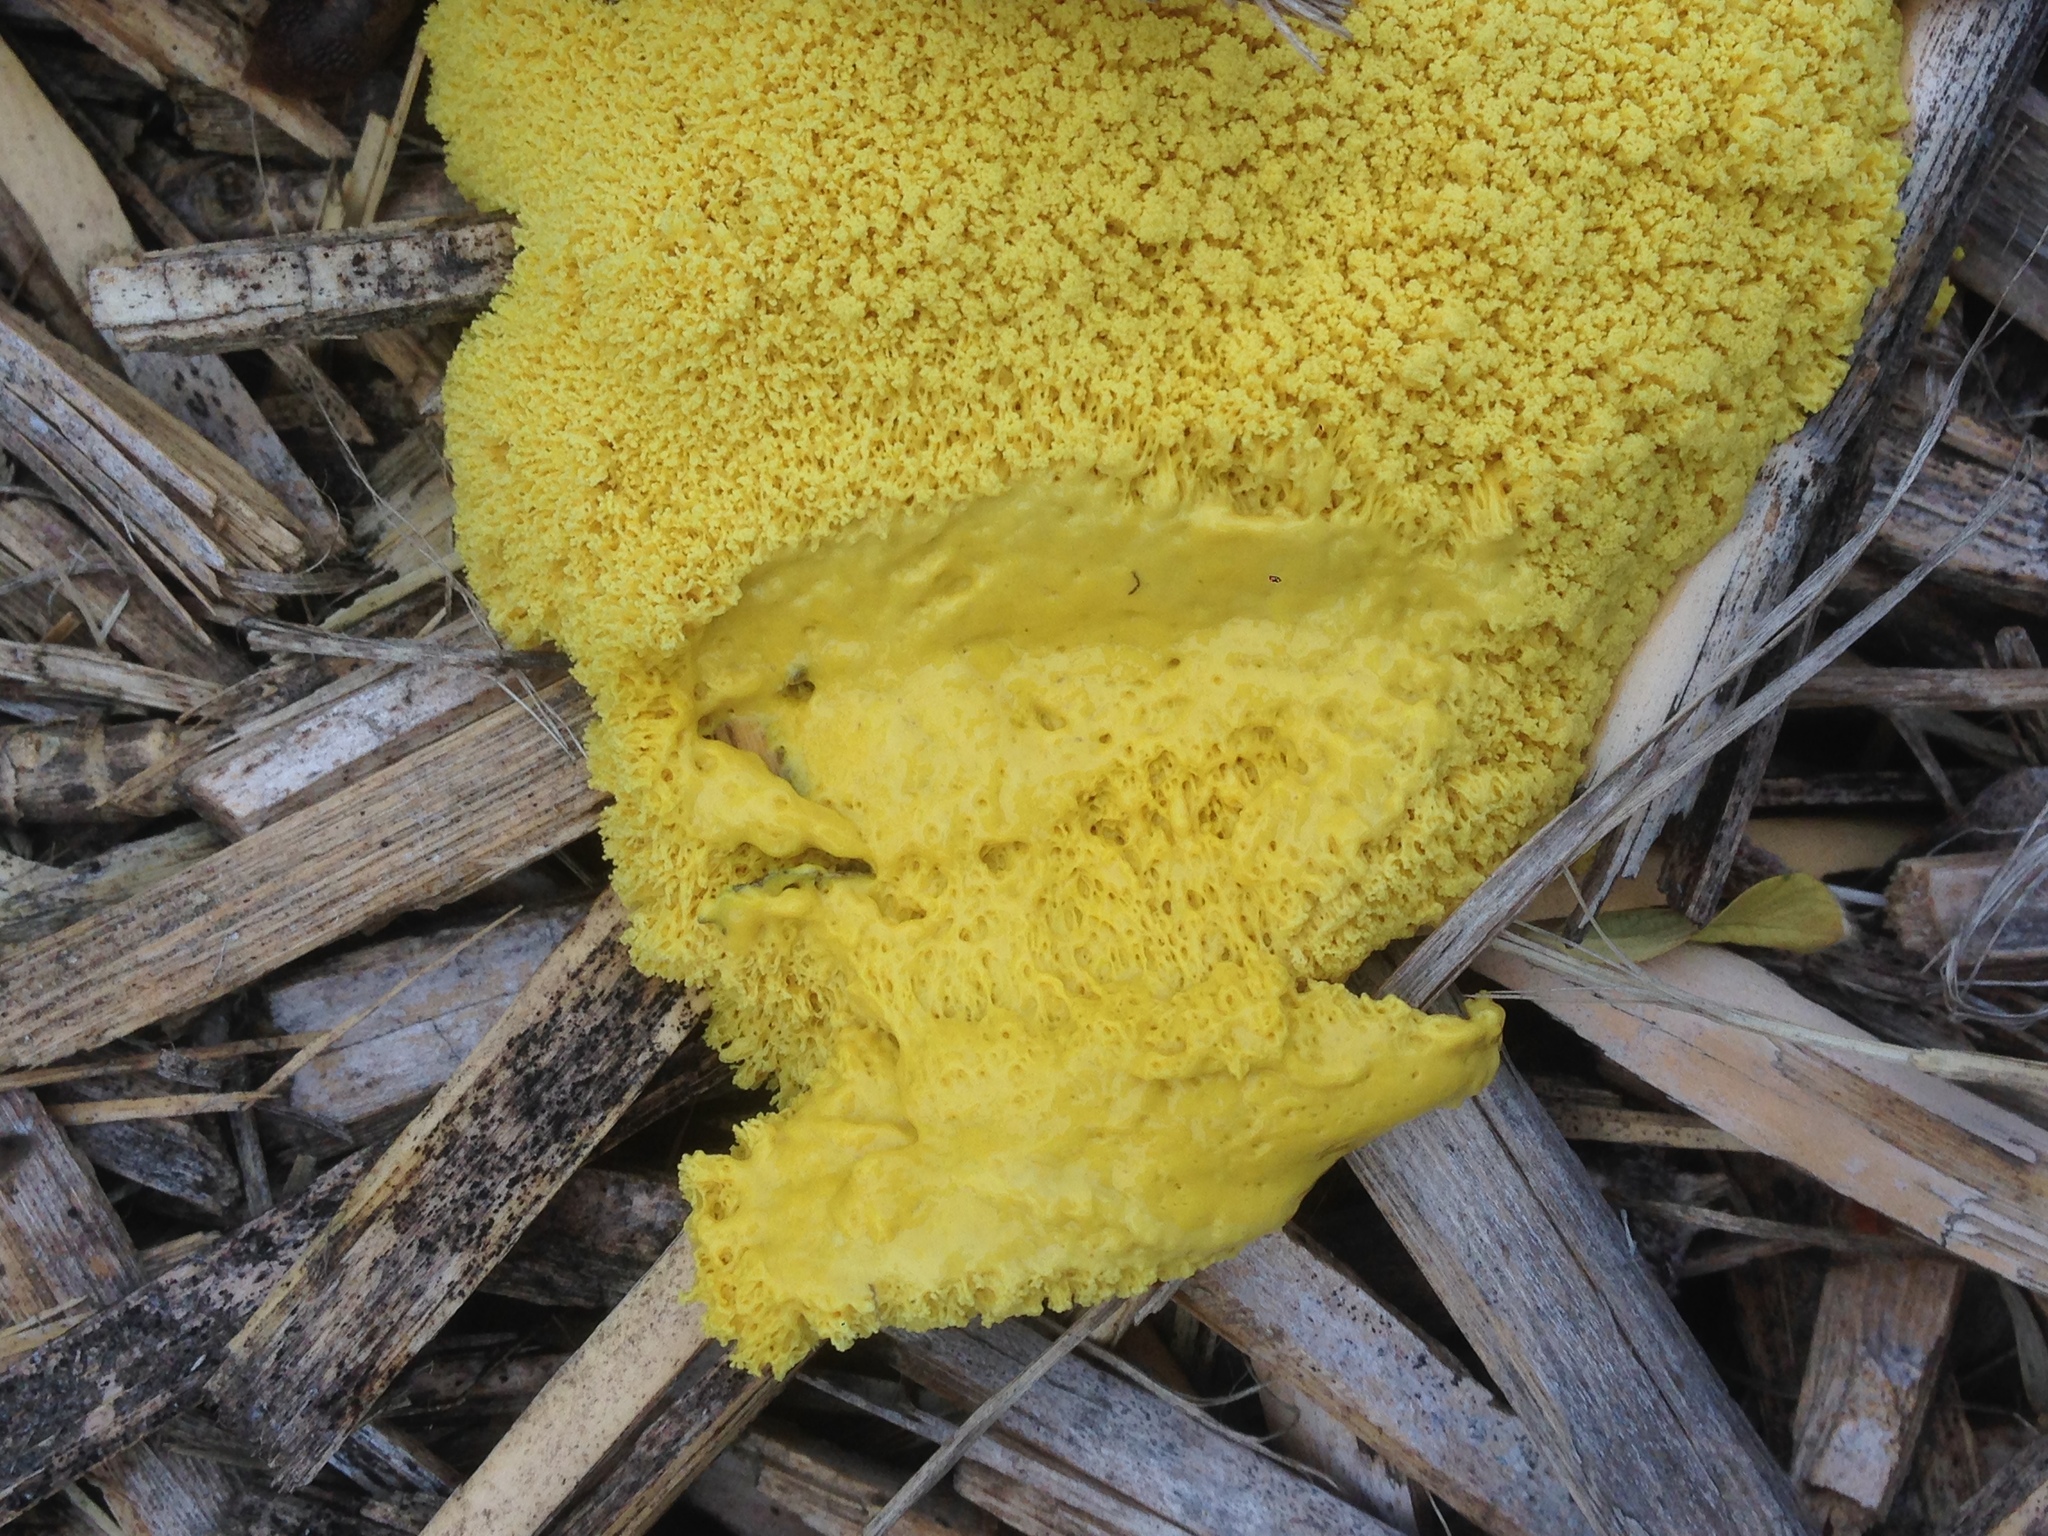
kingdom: Protozoa
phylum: Mycetozoa
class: Myxomycetes
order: Physarales
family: Physaraceae
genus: Fuligo
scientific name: Fuligo septica
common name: Dog vomit slime mold
